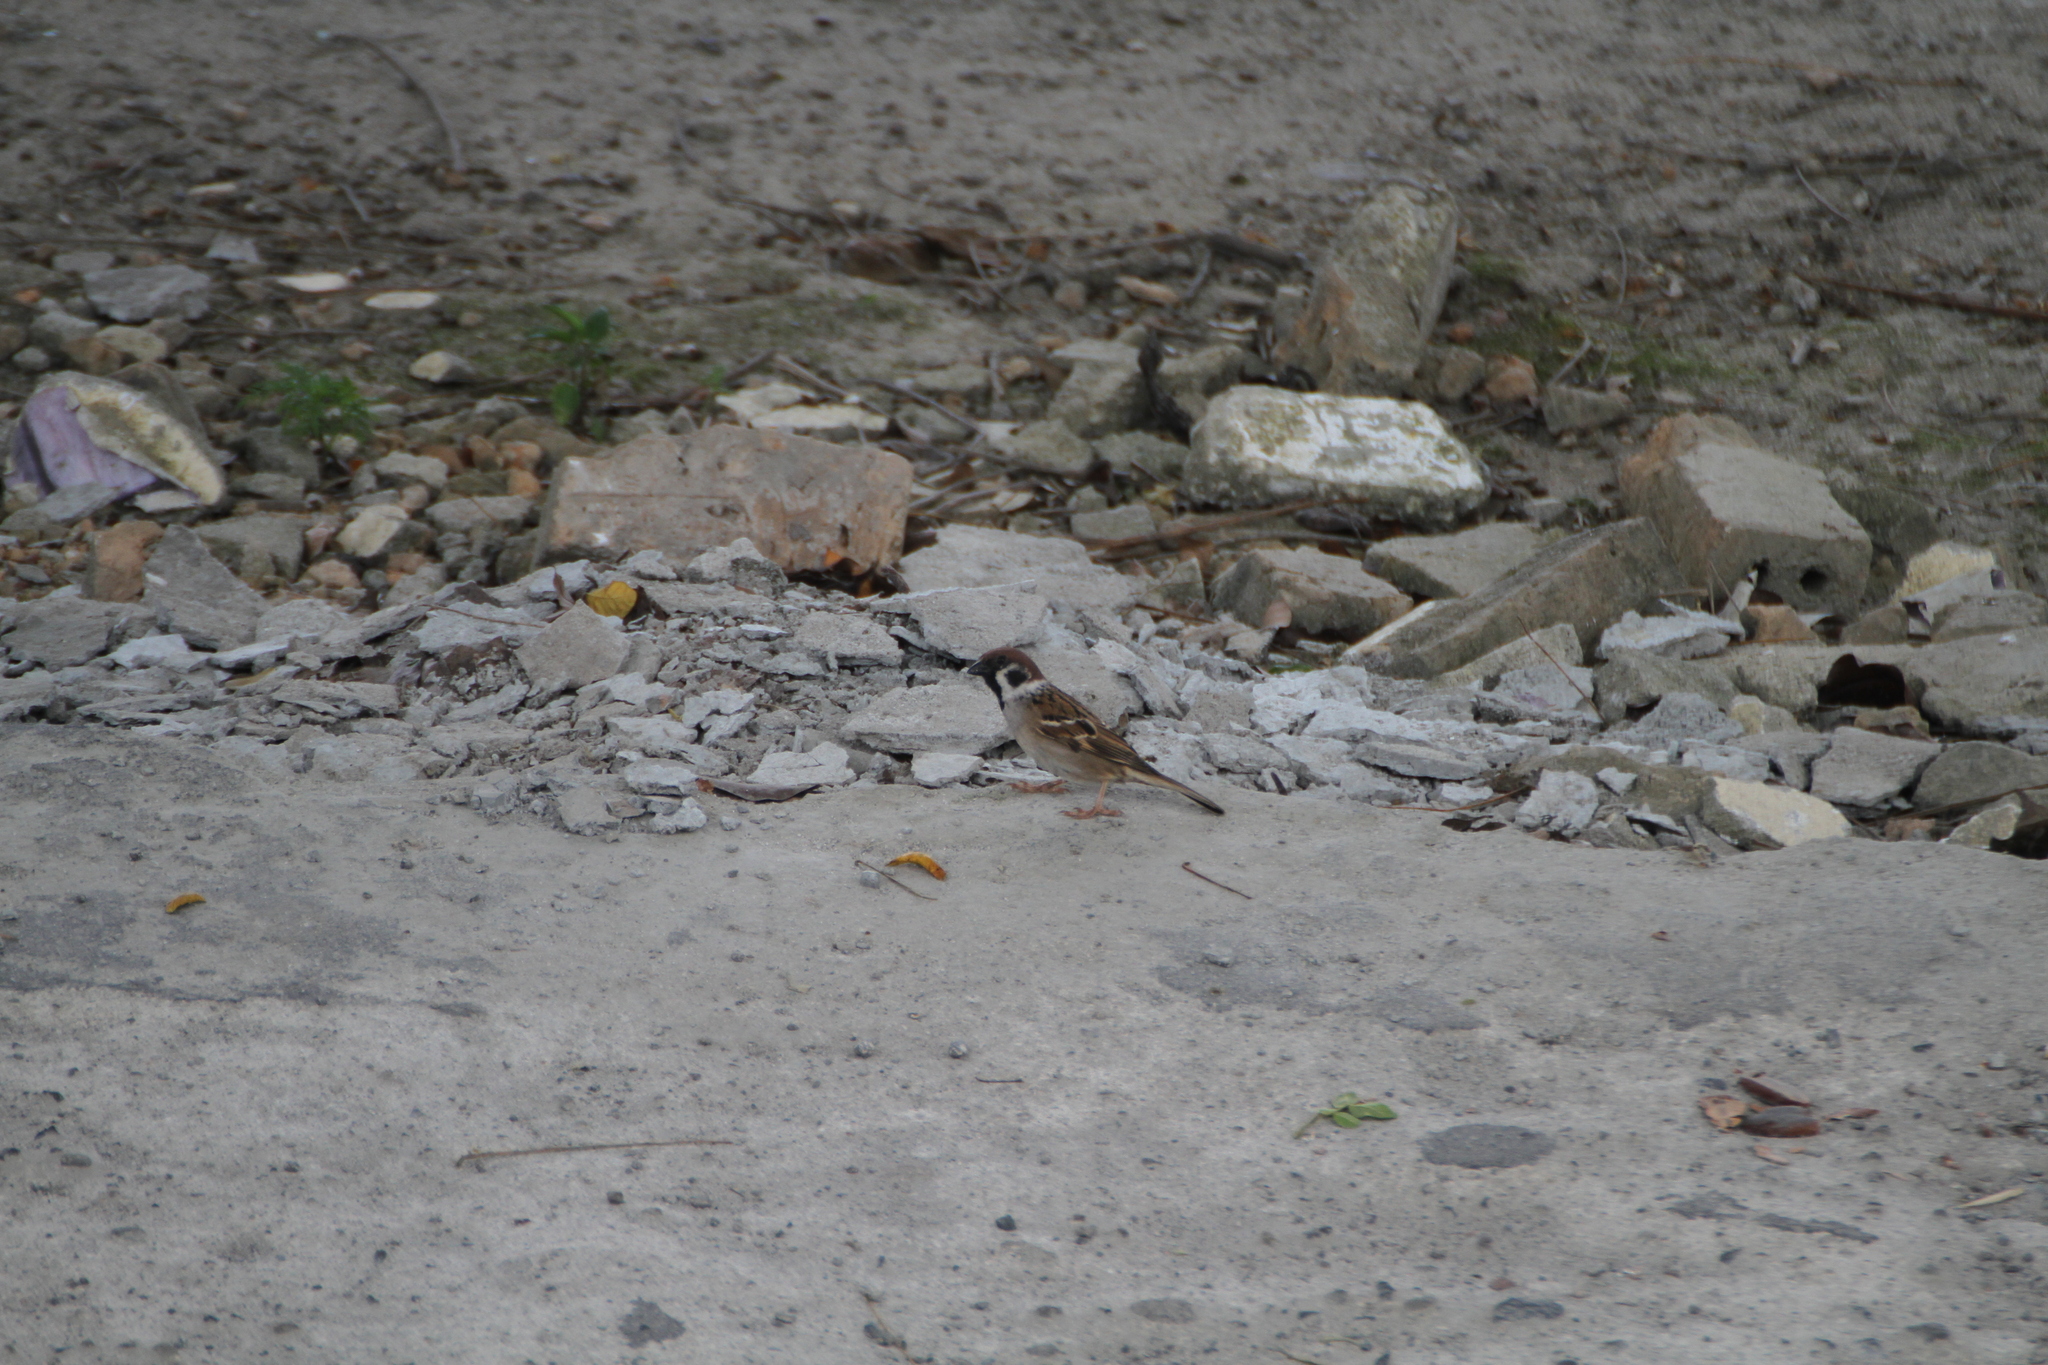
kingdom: Animalia
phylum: Chordata
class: Aves
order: Passeriformes
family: Passeridae
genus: Passer
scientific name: Passer montanus
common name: Eurasian tree sparrow
